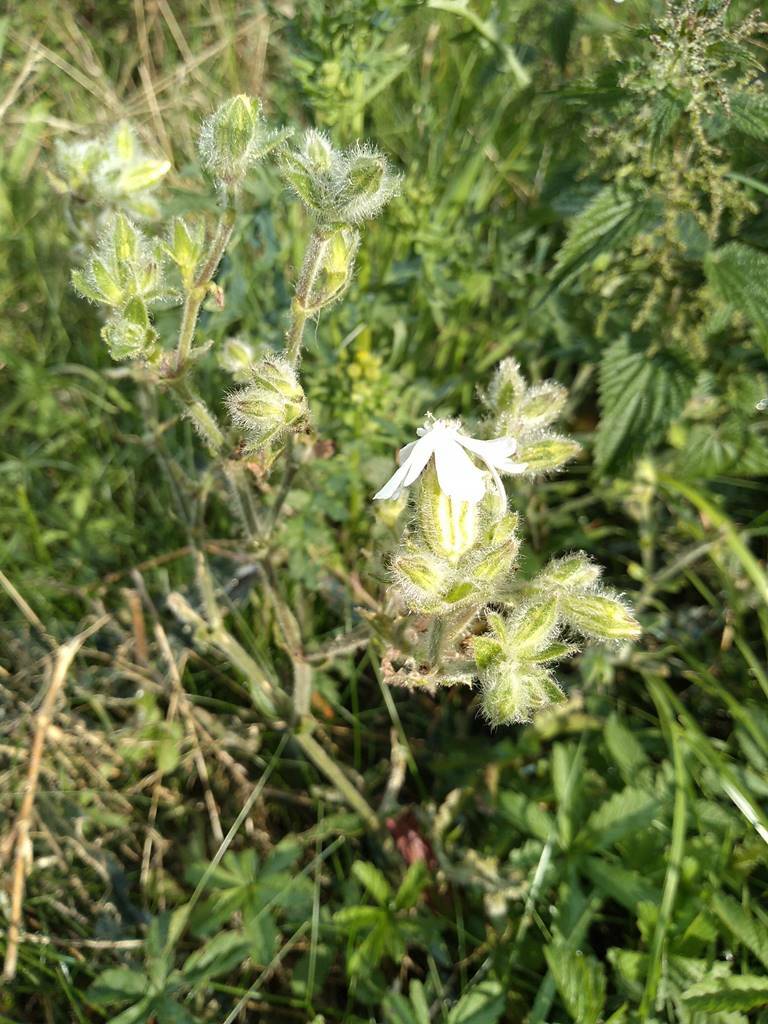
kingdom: Plantae
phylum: Tracheophyta
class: Magnoliopsida
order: Caryophyllales
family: Caryophyllaceae
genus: Silene
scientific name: Silene latifolia
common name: White campion
